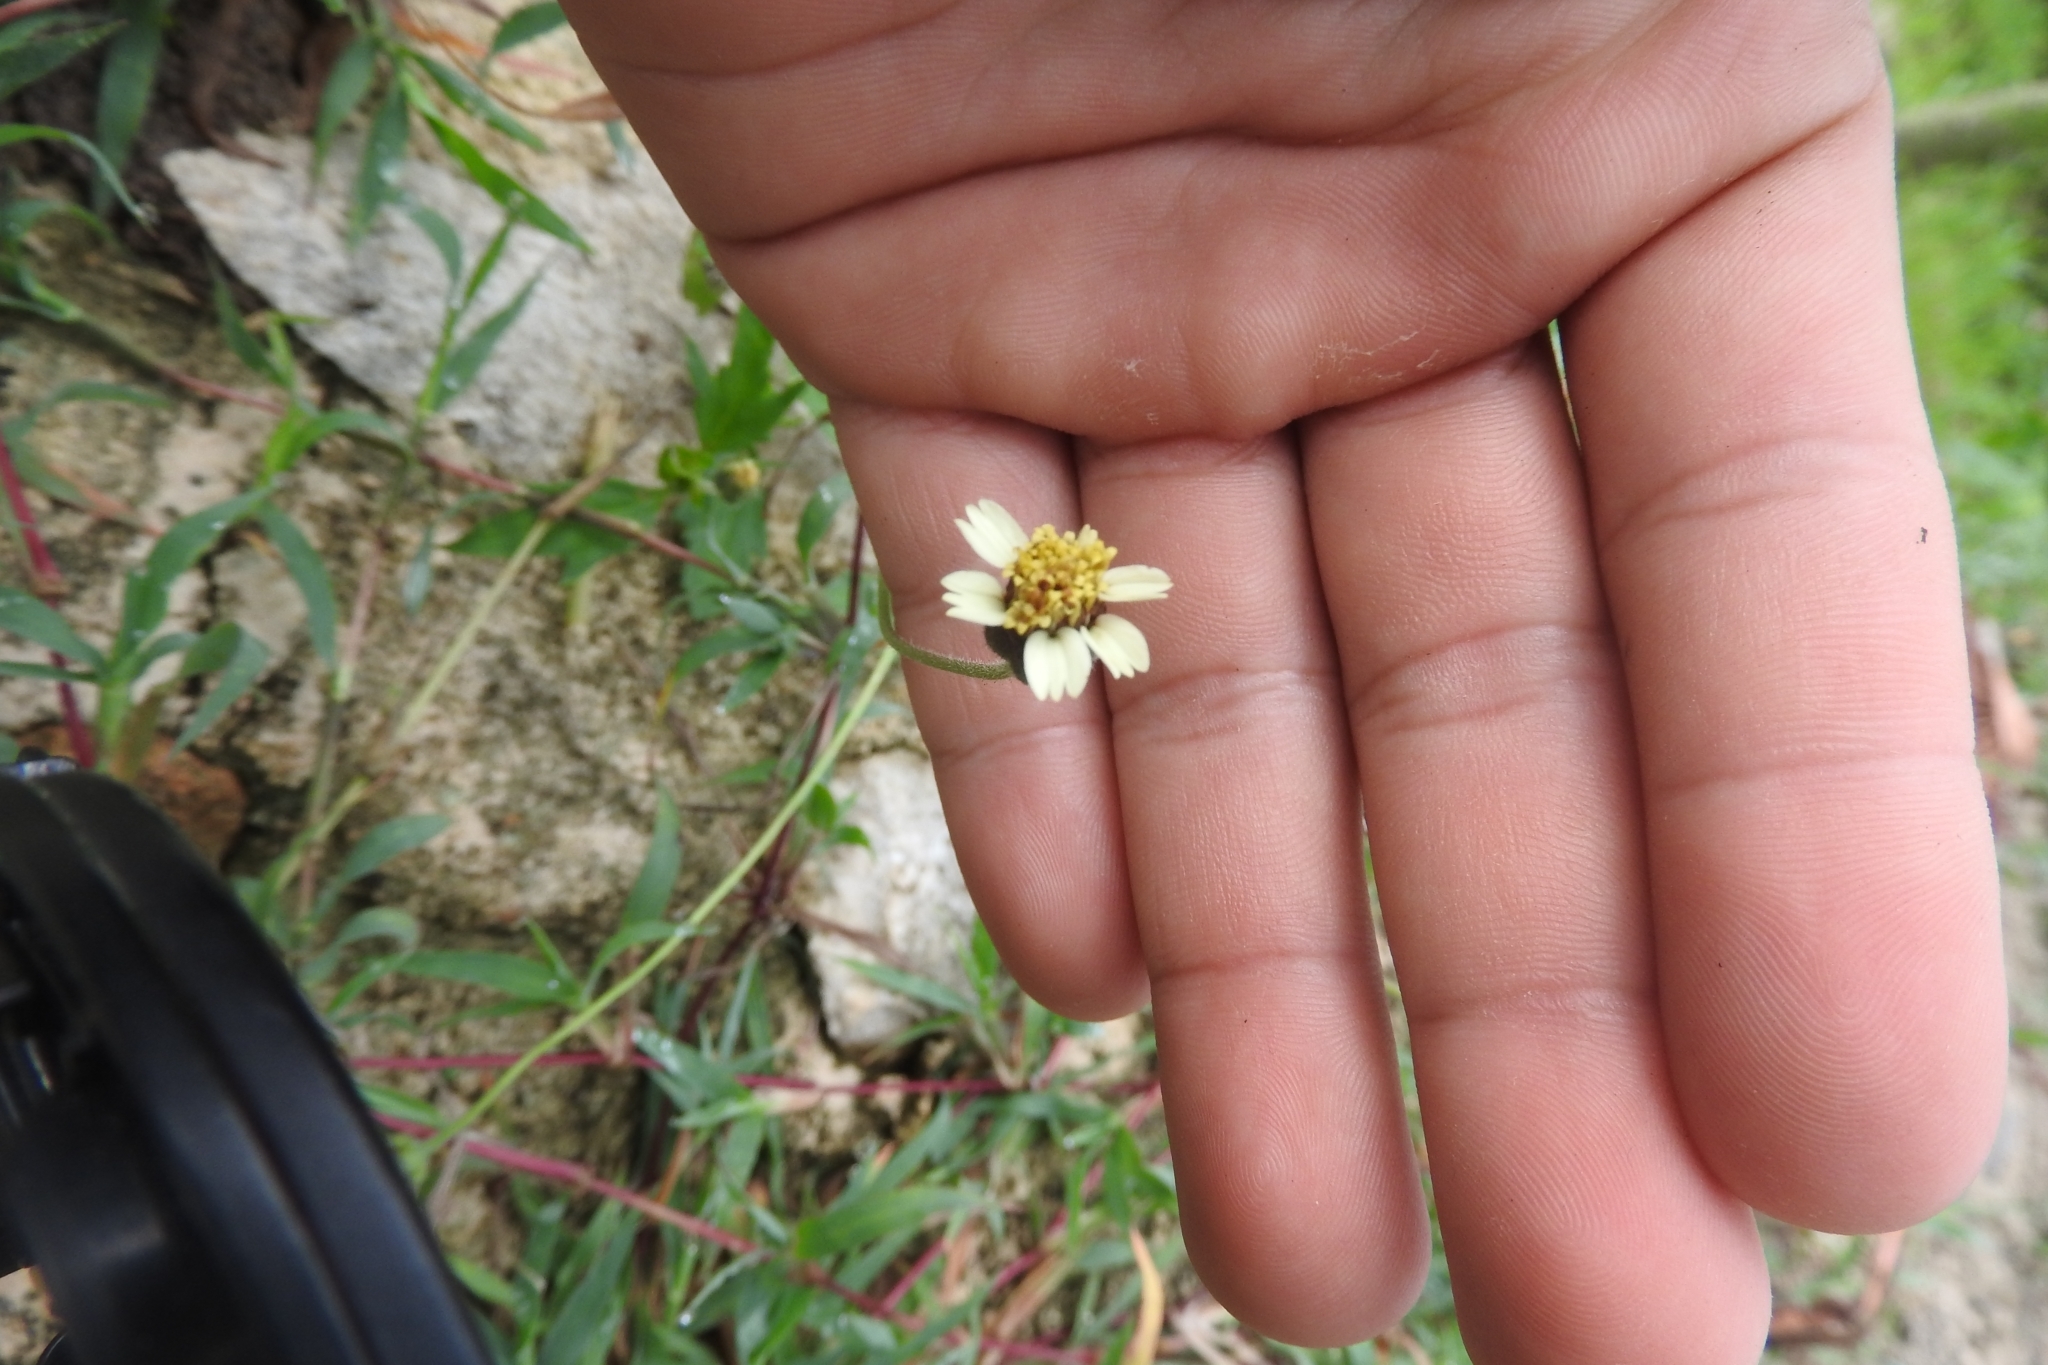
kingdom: Plantae
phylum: Tracheophyta
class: Magnoliopsida
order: Asterales
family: Asteraceae
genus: Tridax
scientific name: Tridax procumbens
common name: Coatbuttons
